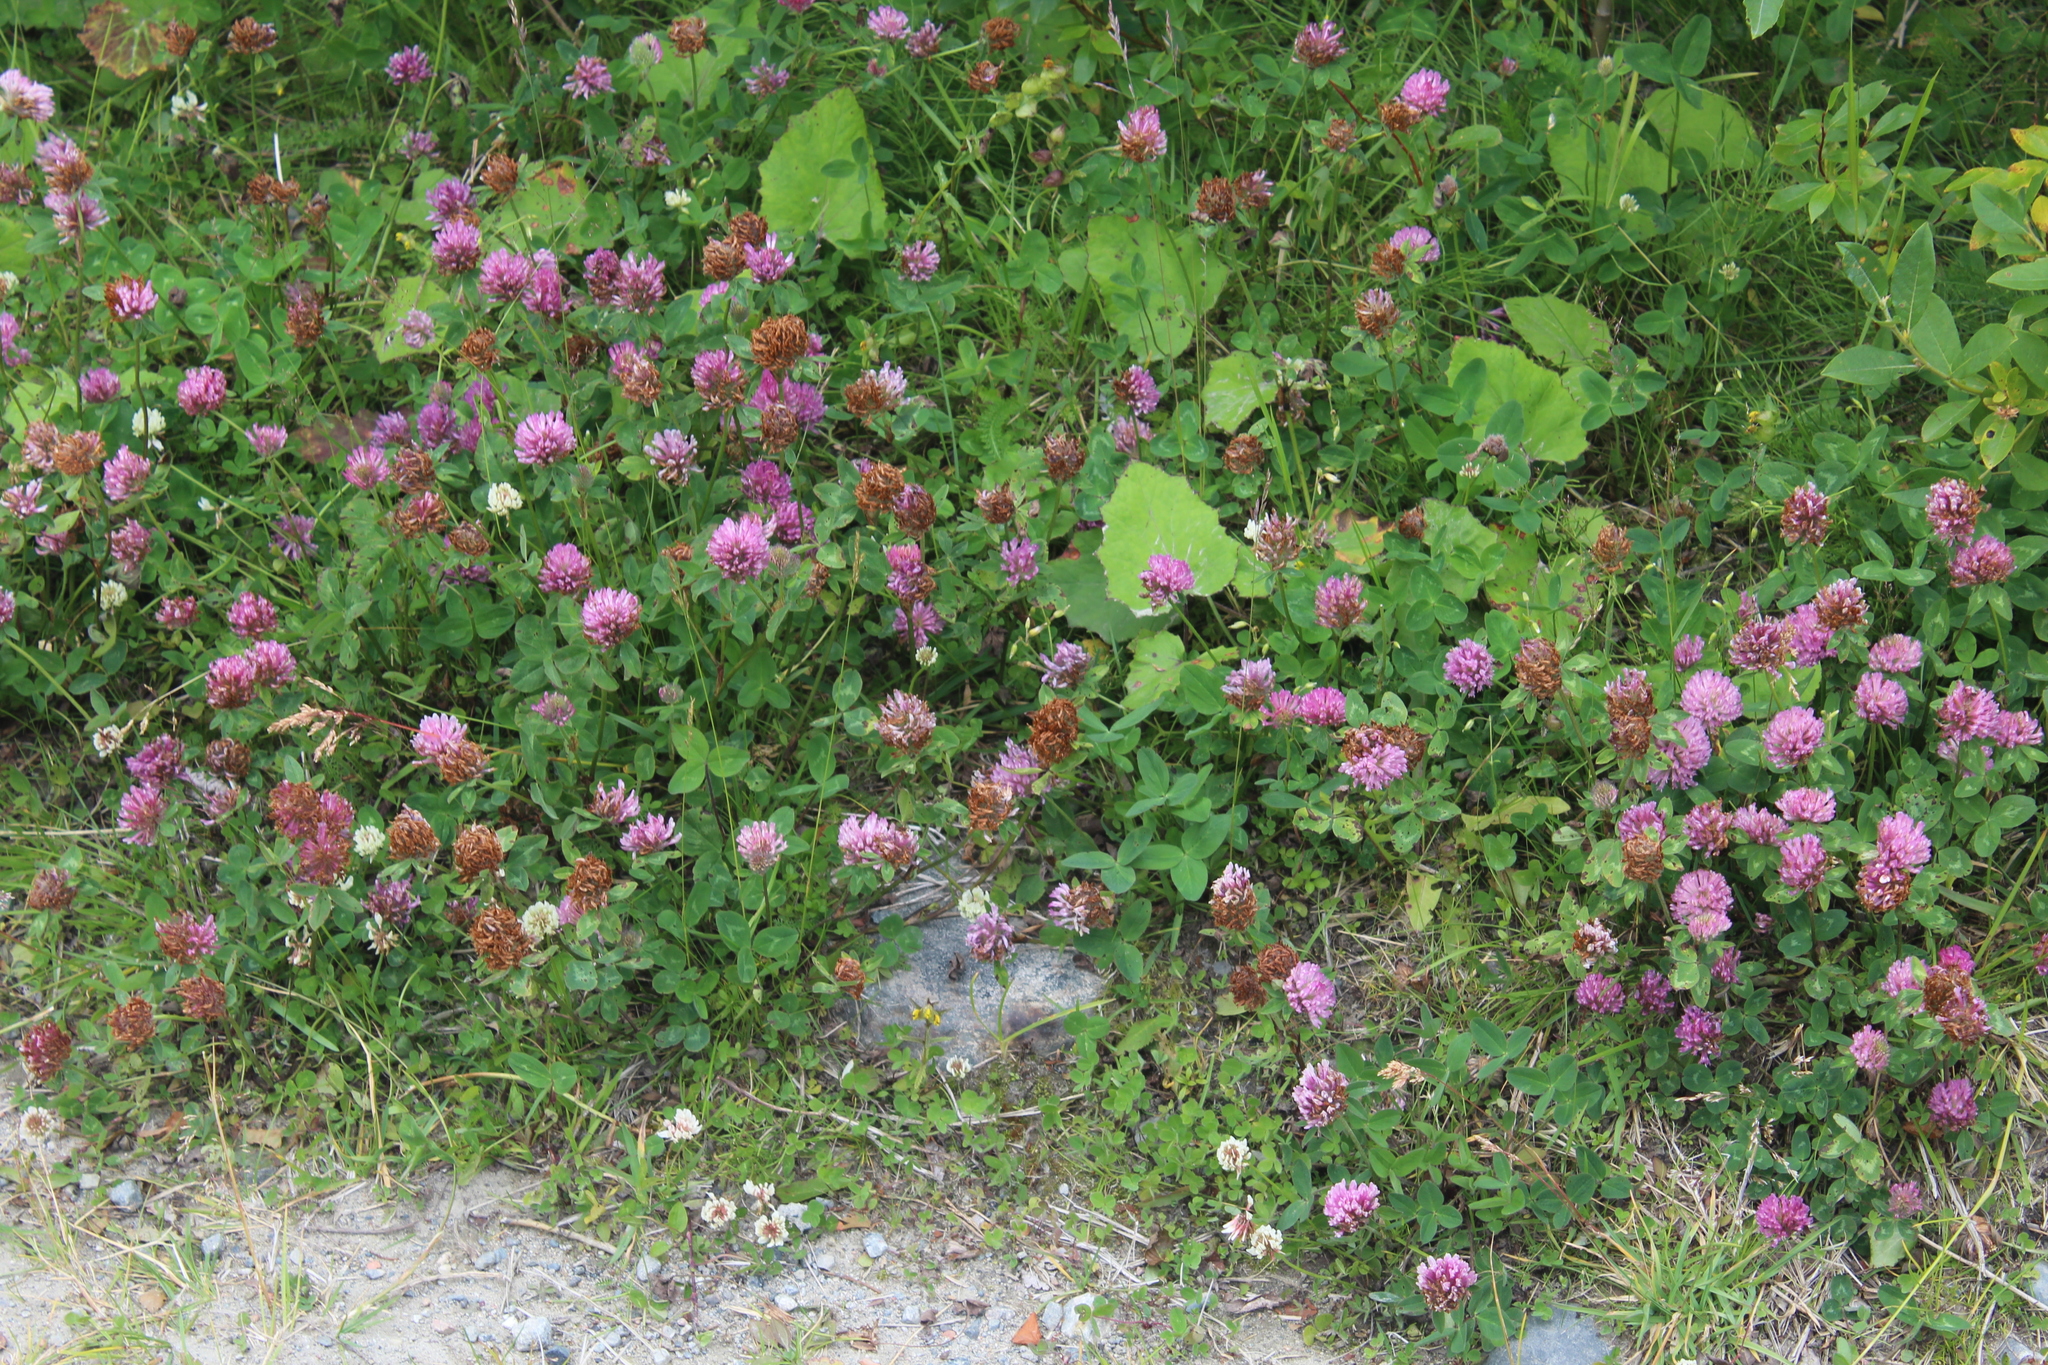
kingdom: Plantae
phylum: Tracheophyta
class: Magnoliopsida
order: Fabales
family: Fabaceae
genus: Trifolium
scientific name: Trifolium pratense
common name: Red clover
